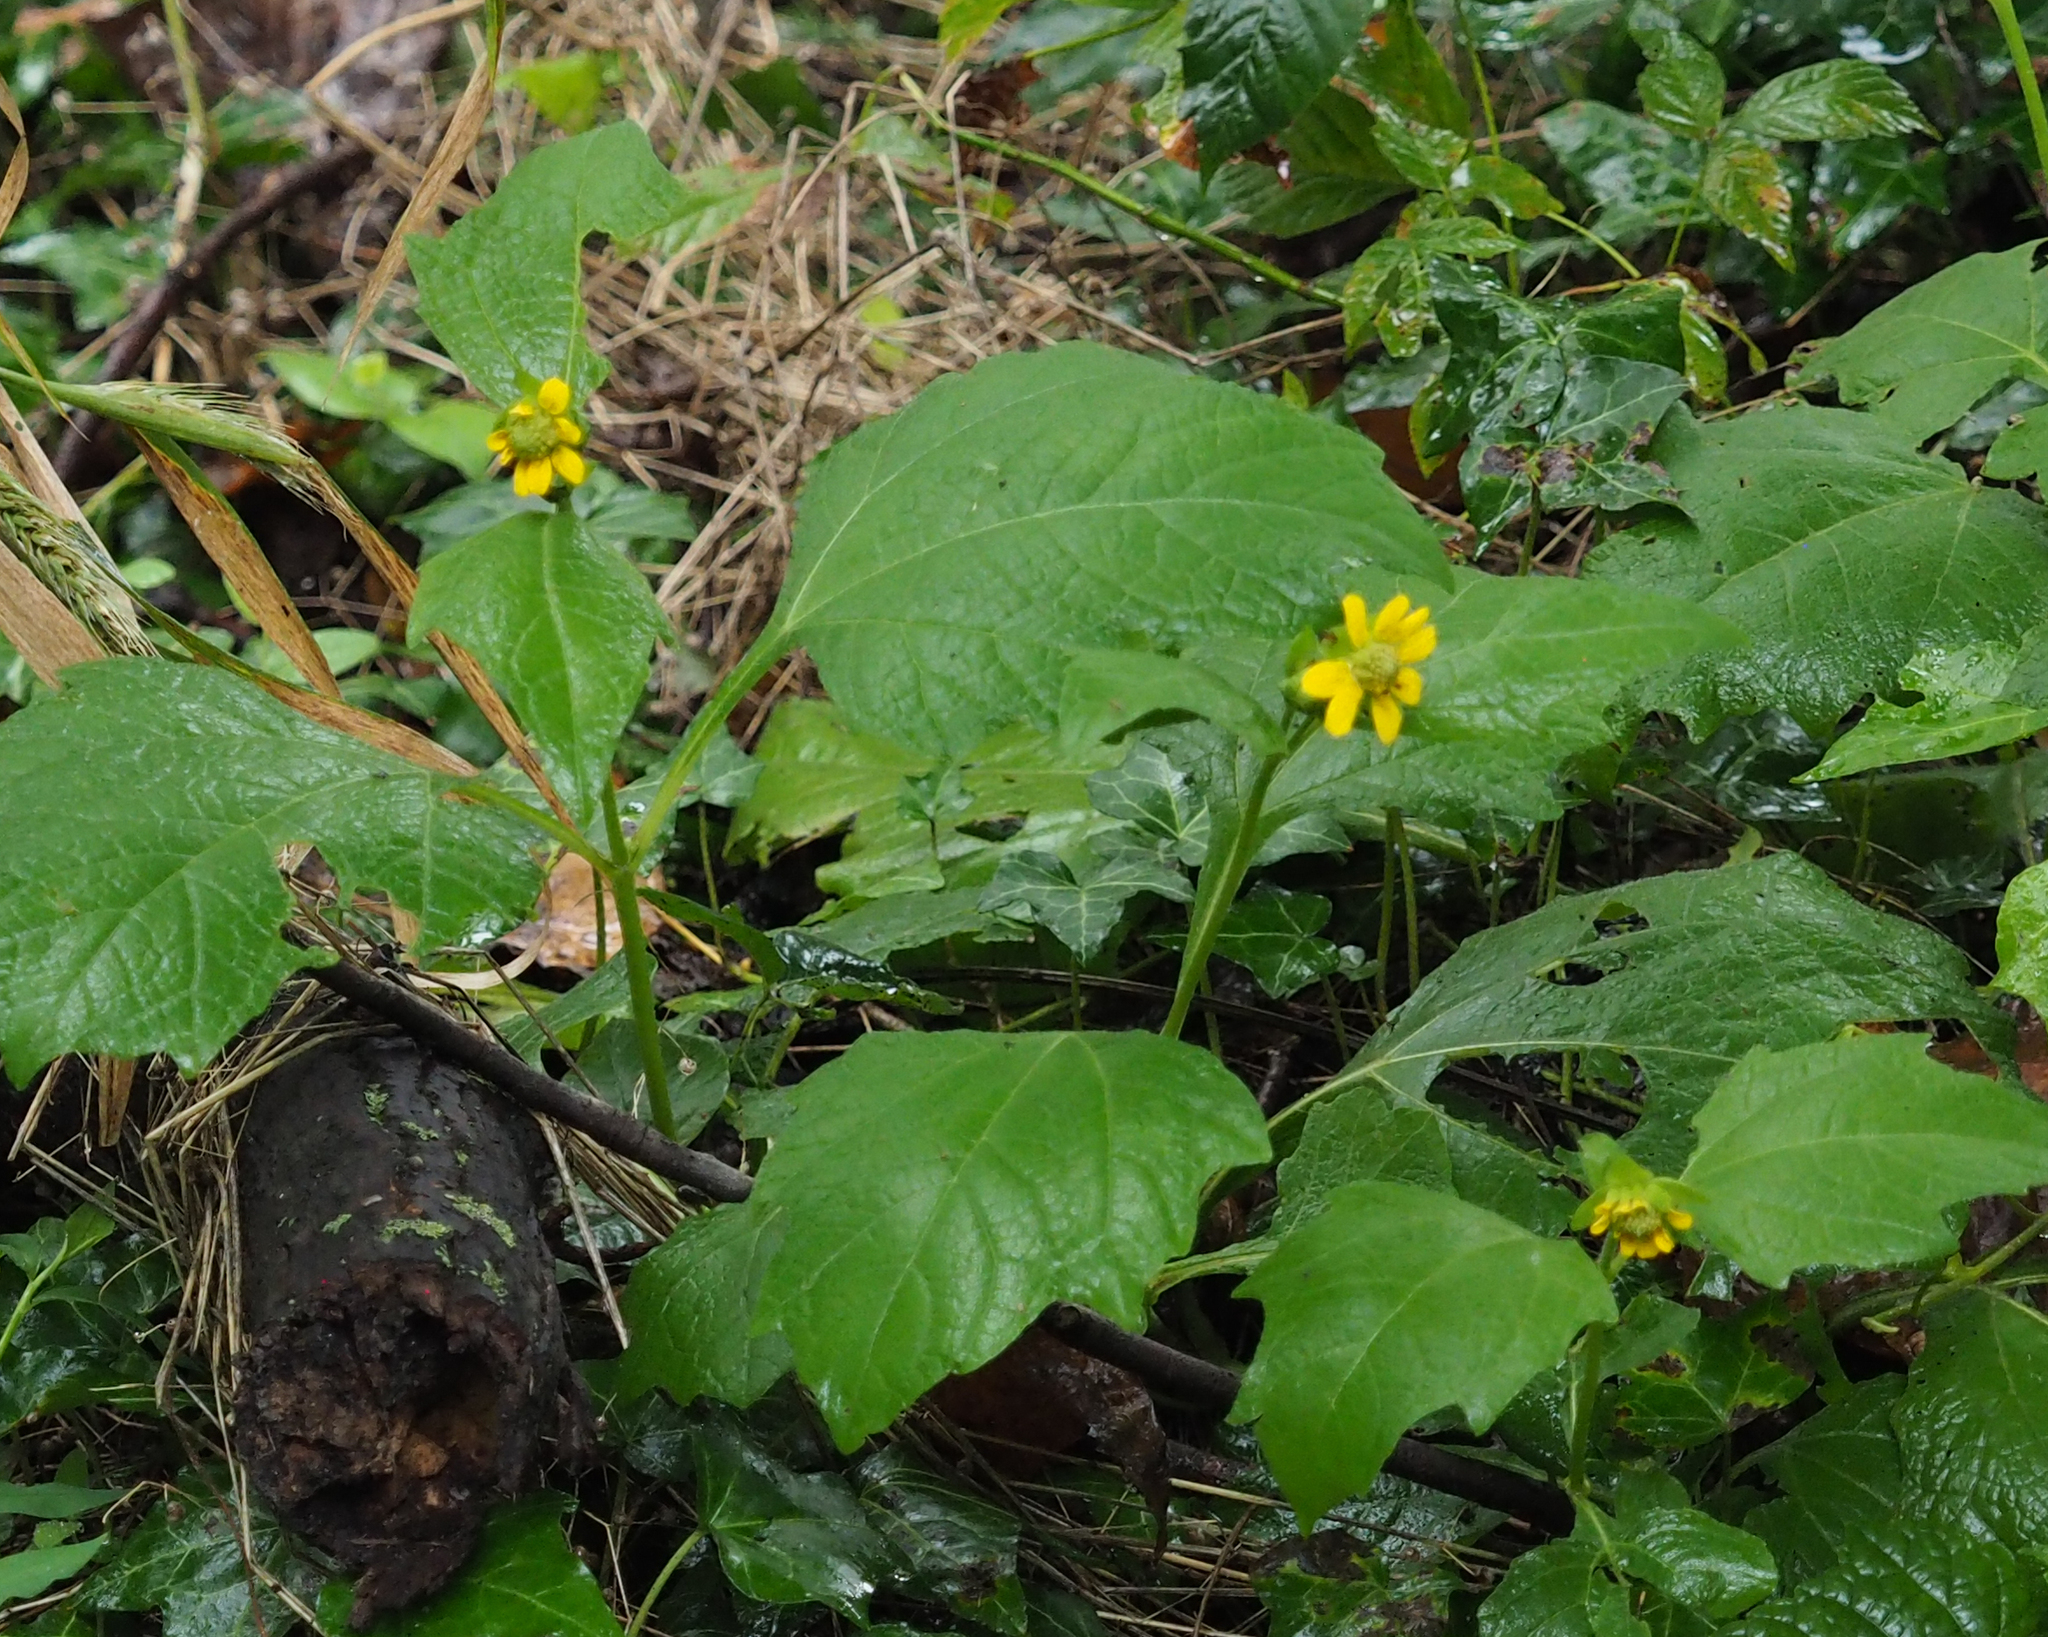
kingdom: Plantae
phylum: Tracheophyta
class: Magnoliopsida
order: Asterales
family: Asteraceae
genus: Smallanthus
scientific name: Smallanthus uvedalia
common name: Bear's-foot
